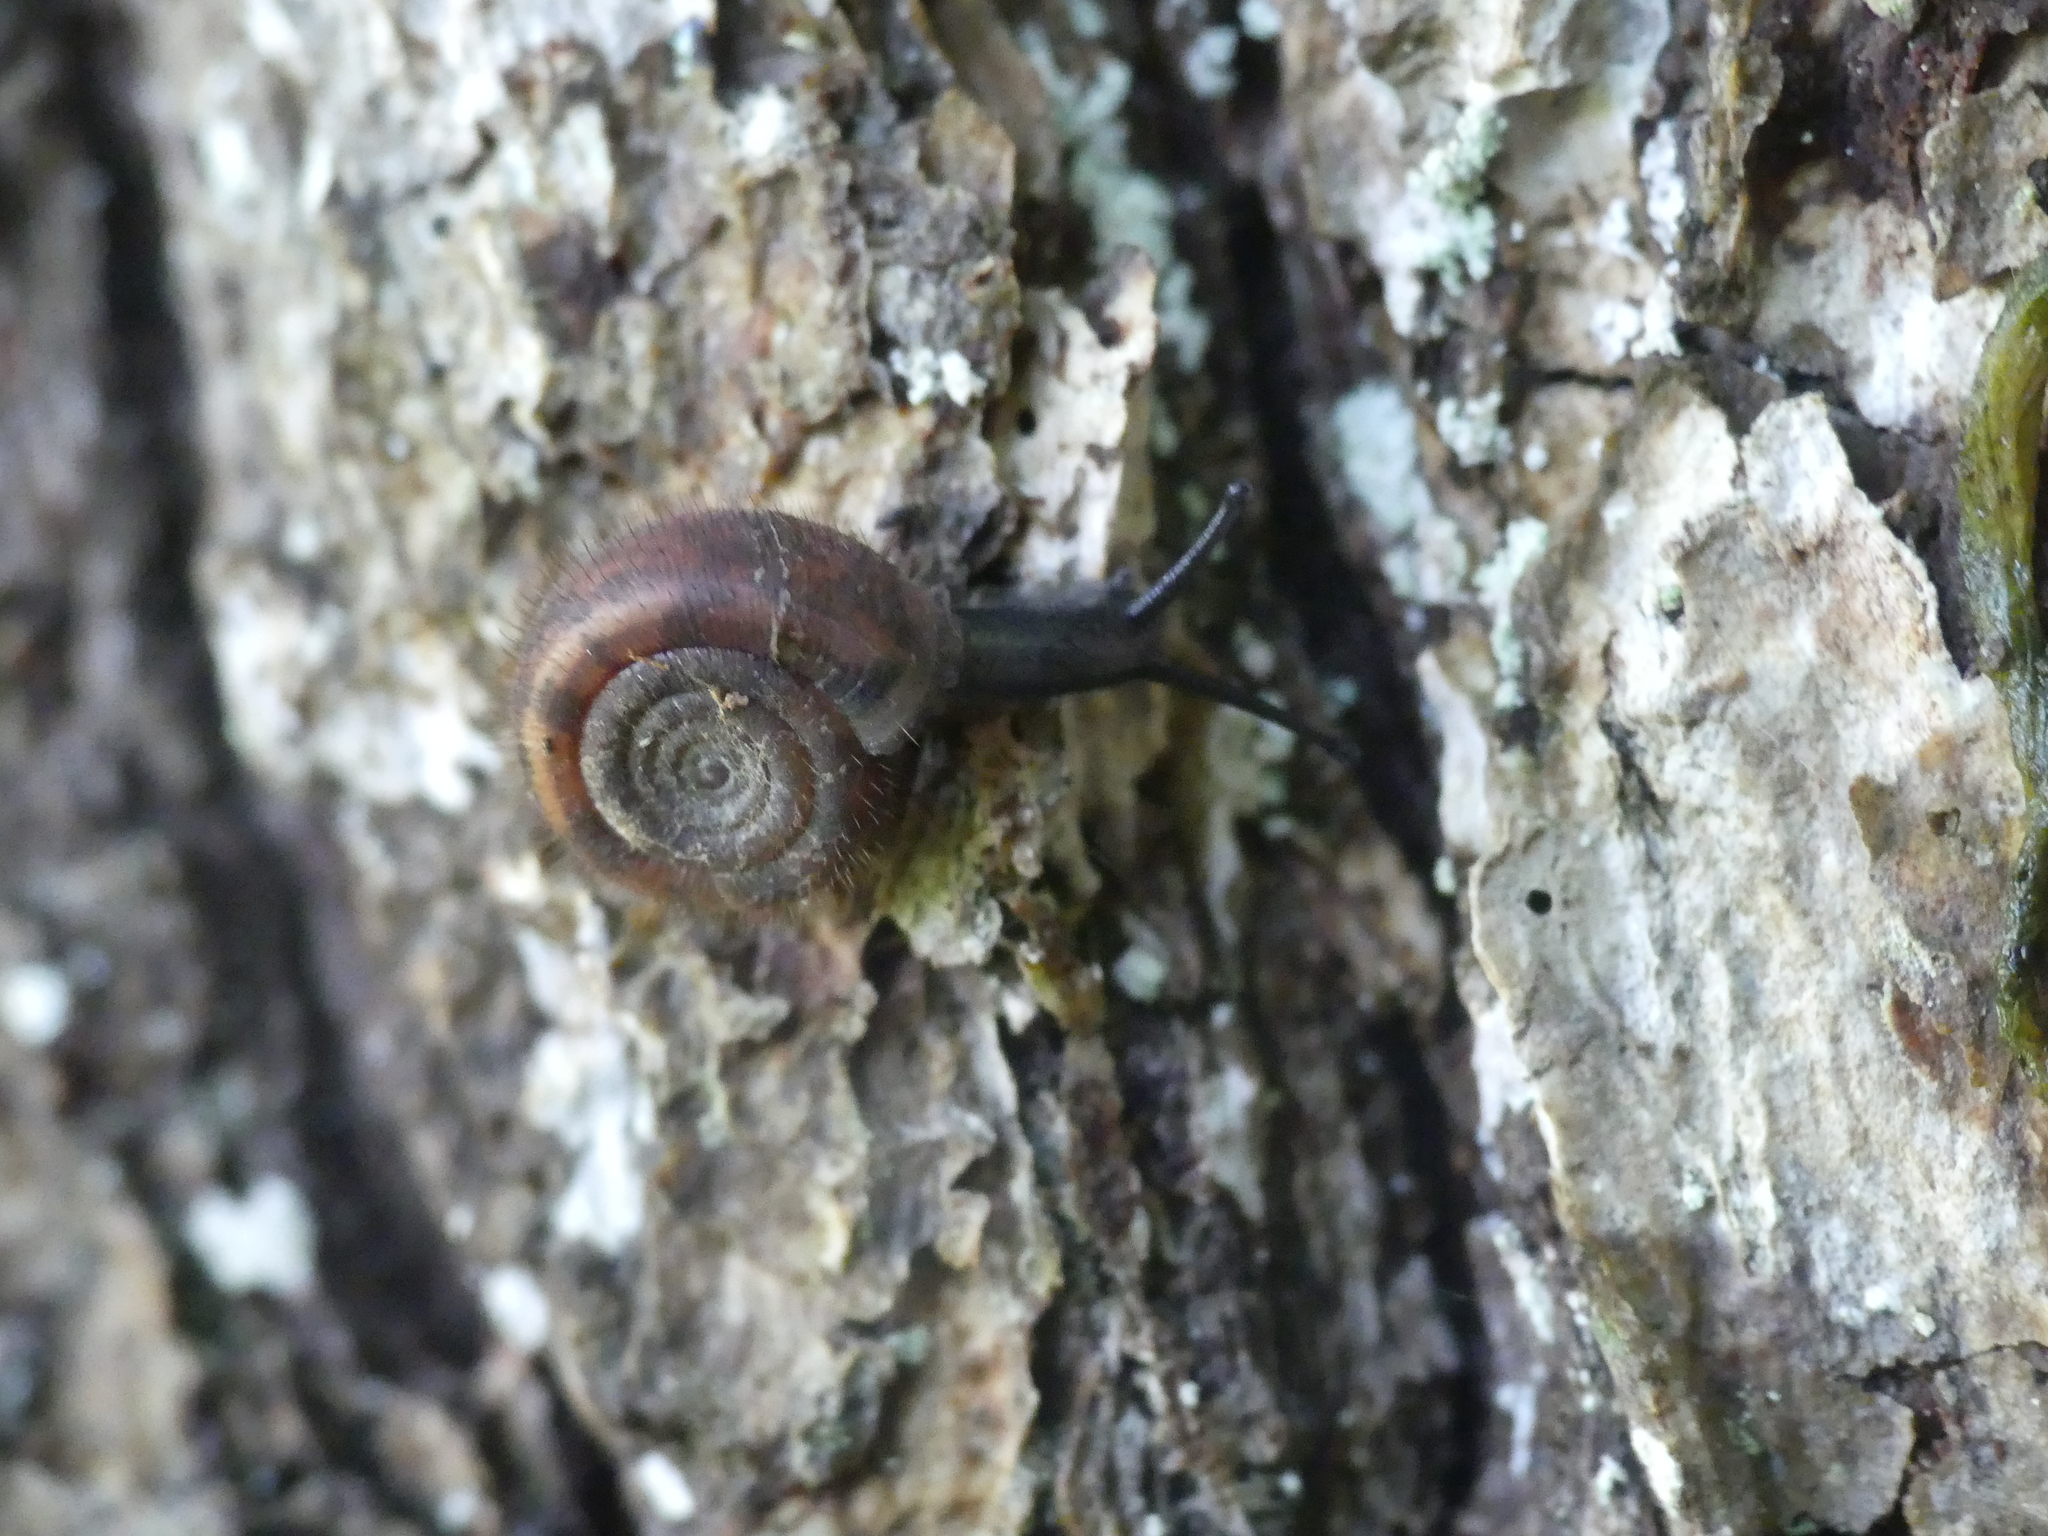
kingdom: Animalia
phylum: Mollusca
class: Gastropoda
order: Stylommatophora
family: Helicodontidae
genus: Helicodonta
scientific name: Helicodonta obvoluta
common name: Cheese snail
